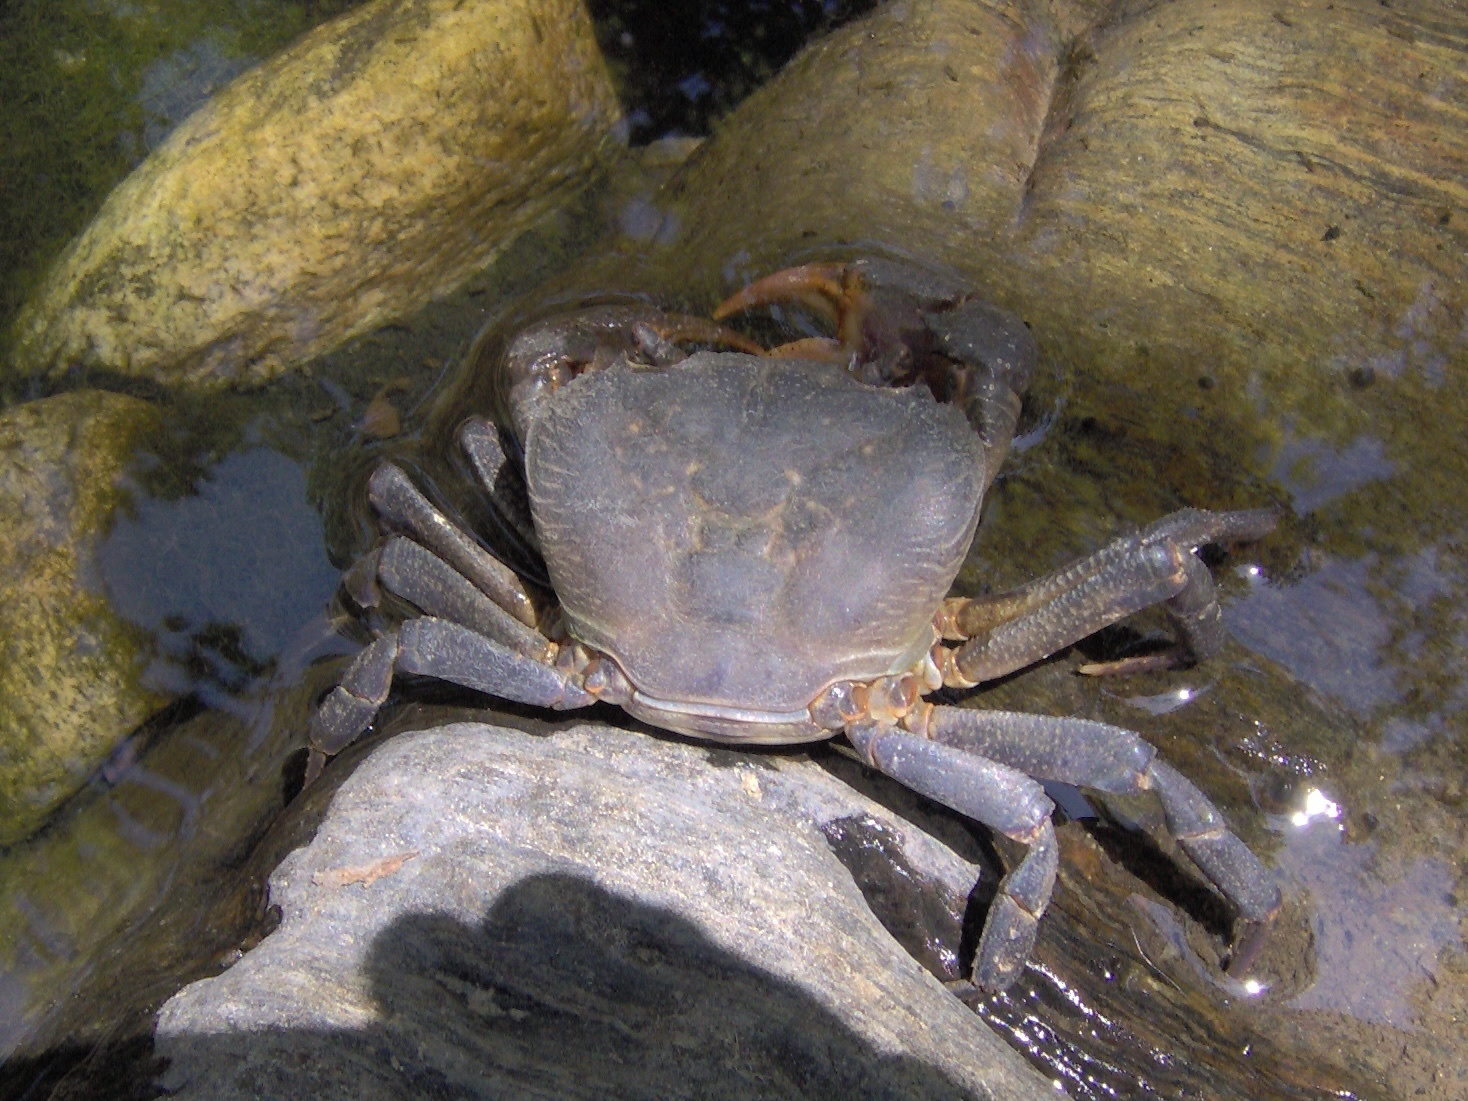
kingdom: Animalia
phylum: Arthropoda
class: Malacostraca
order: Decapoda
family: Potamidae
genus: Potamon
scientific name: Potamon hippocratis
